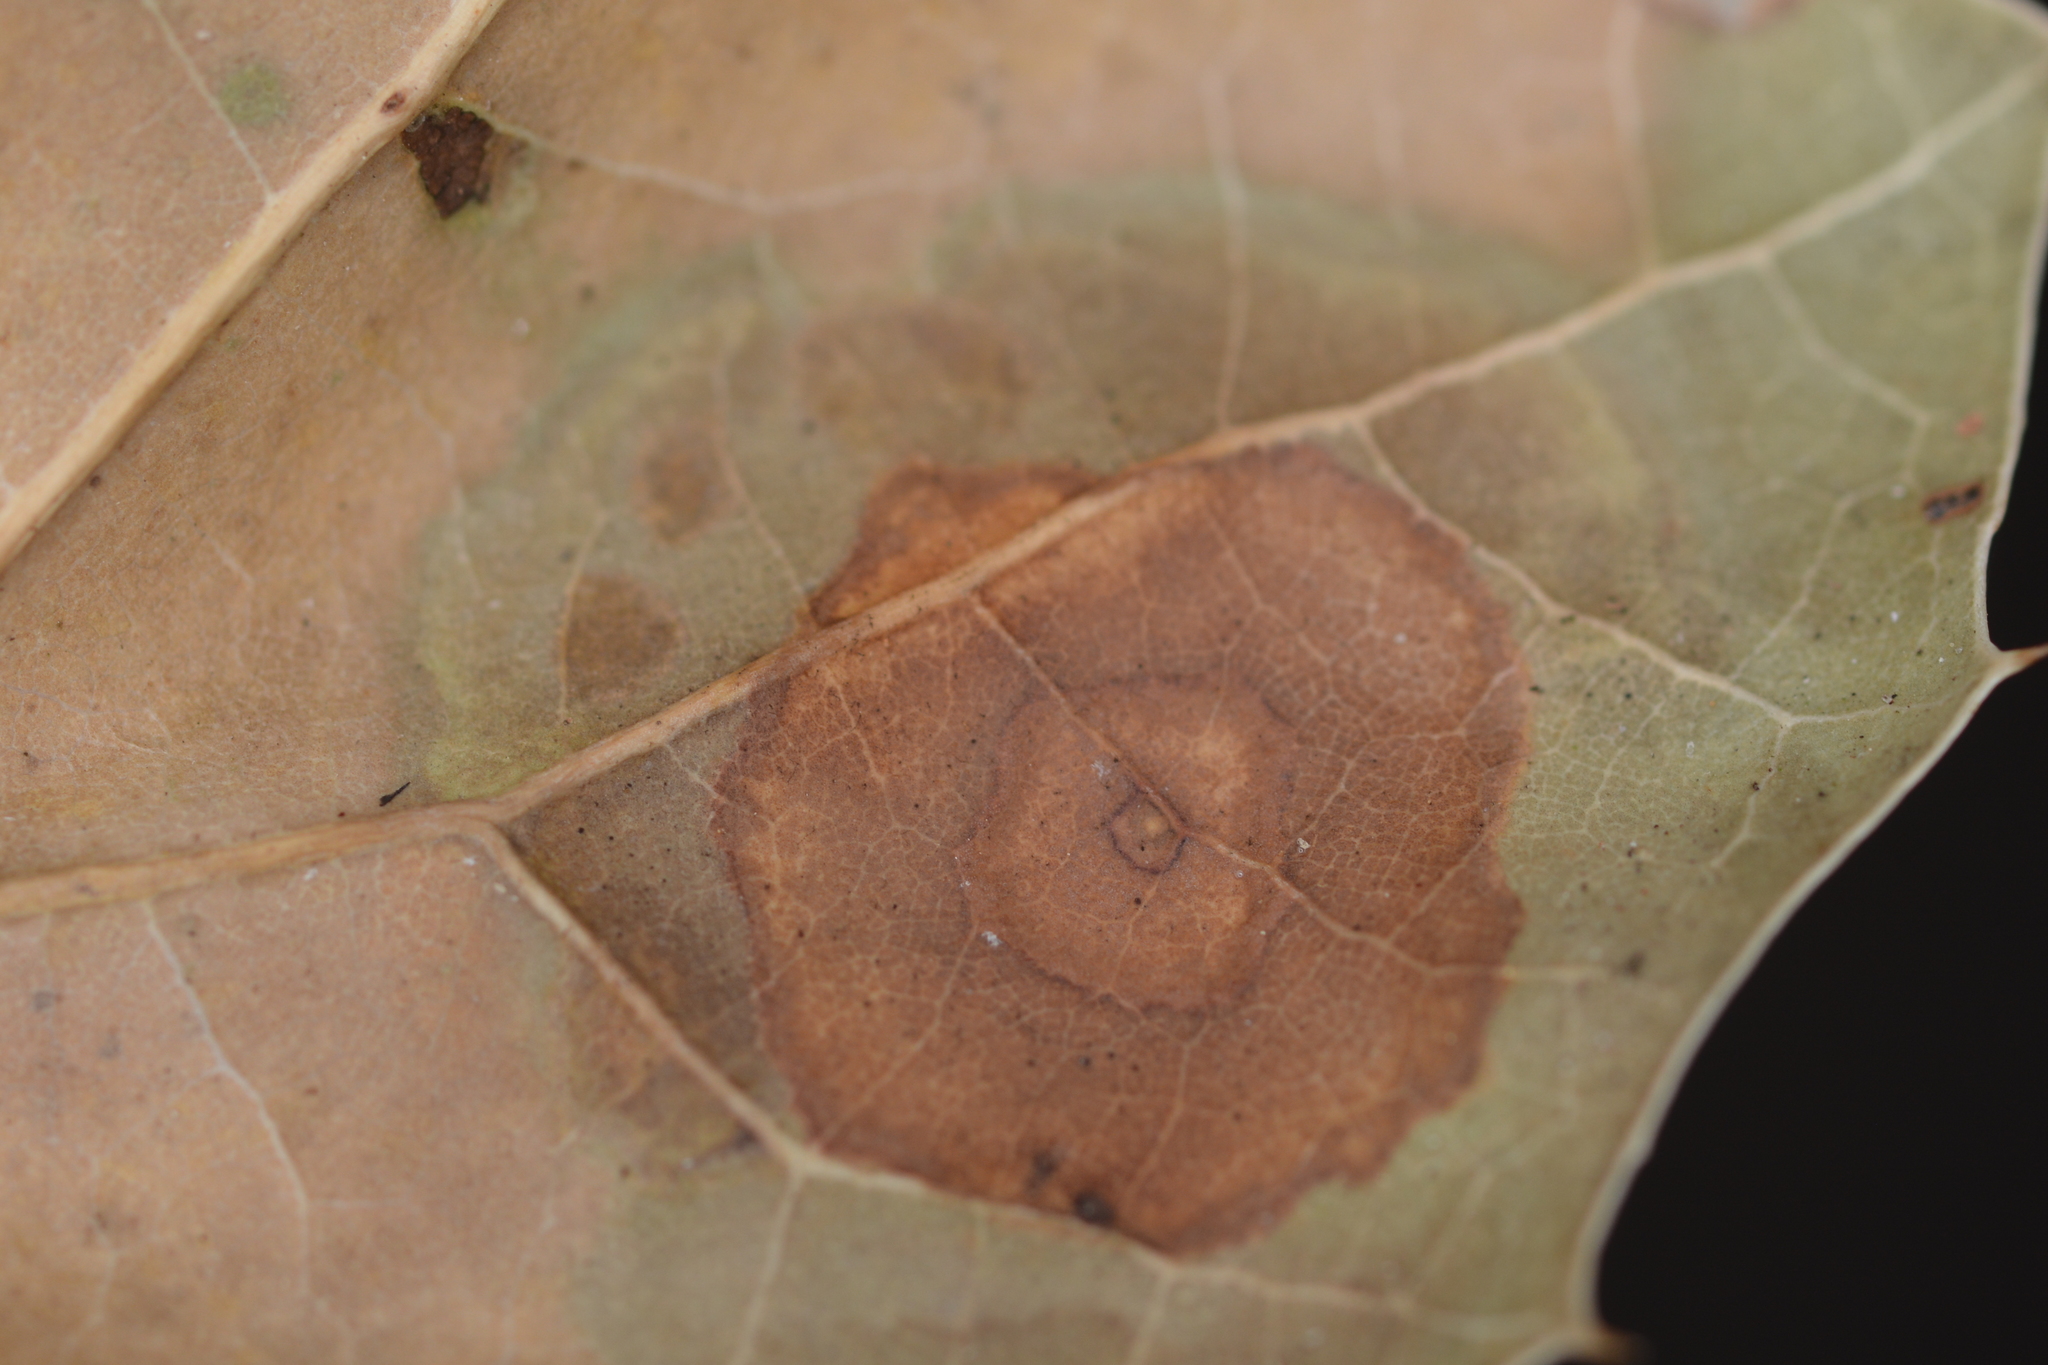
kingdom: Fungi
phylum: Ascomycota
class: Sordariomycetes
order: Diaporthales
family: Tubakiaceae
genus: Tubakia
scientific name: Tubakia californica
